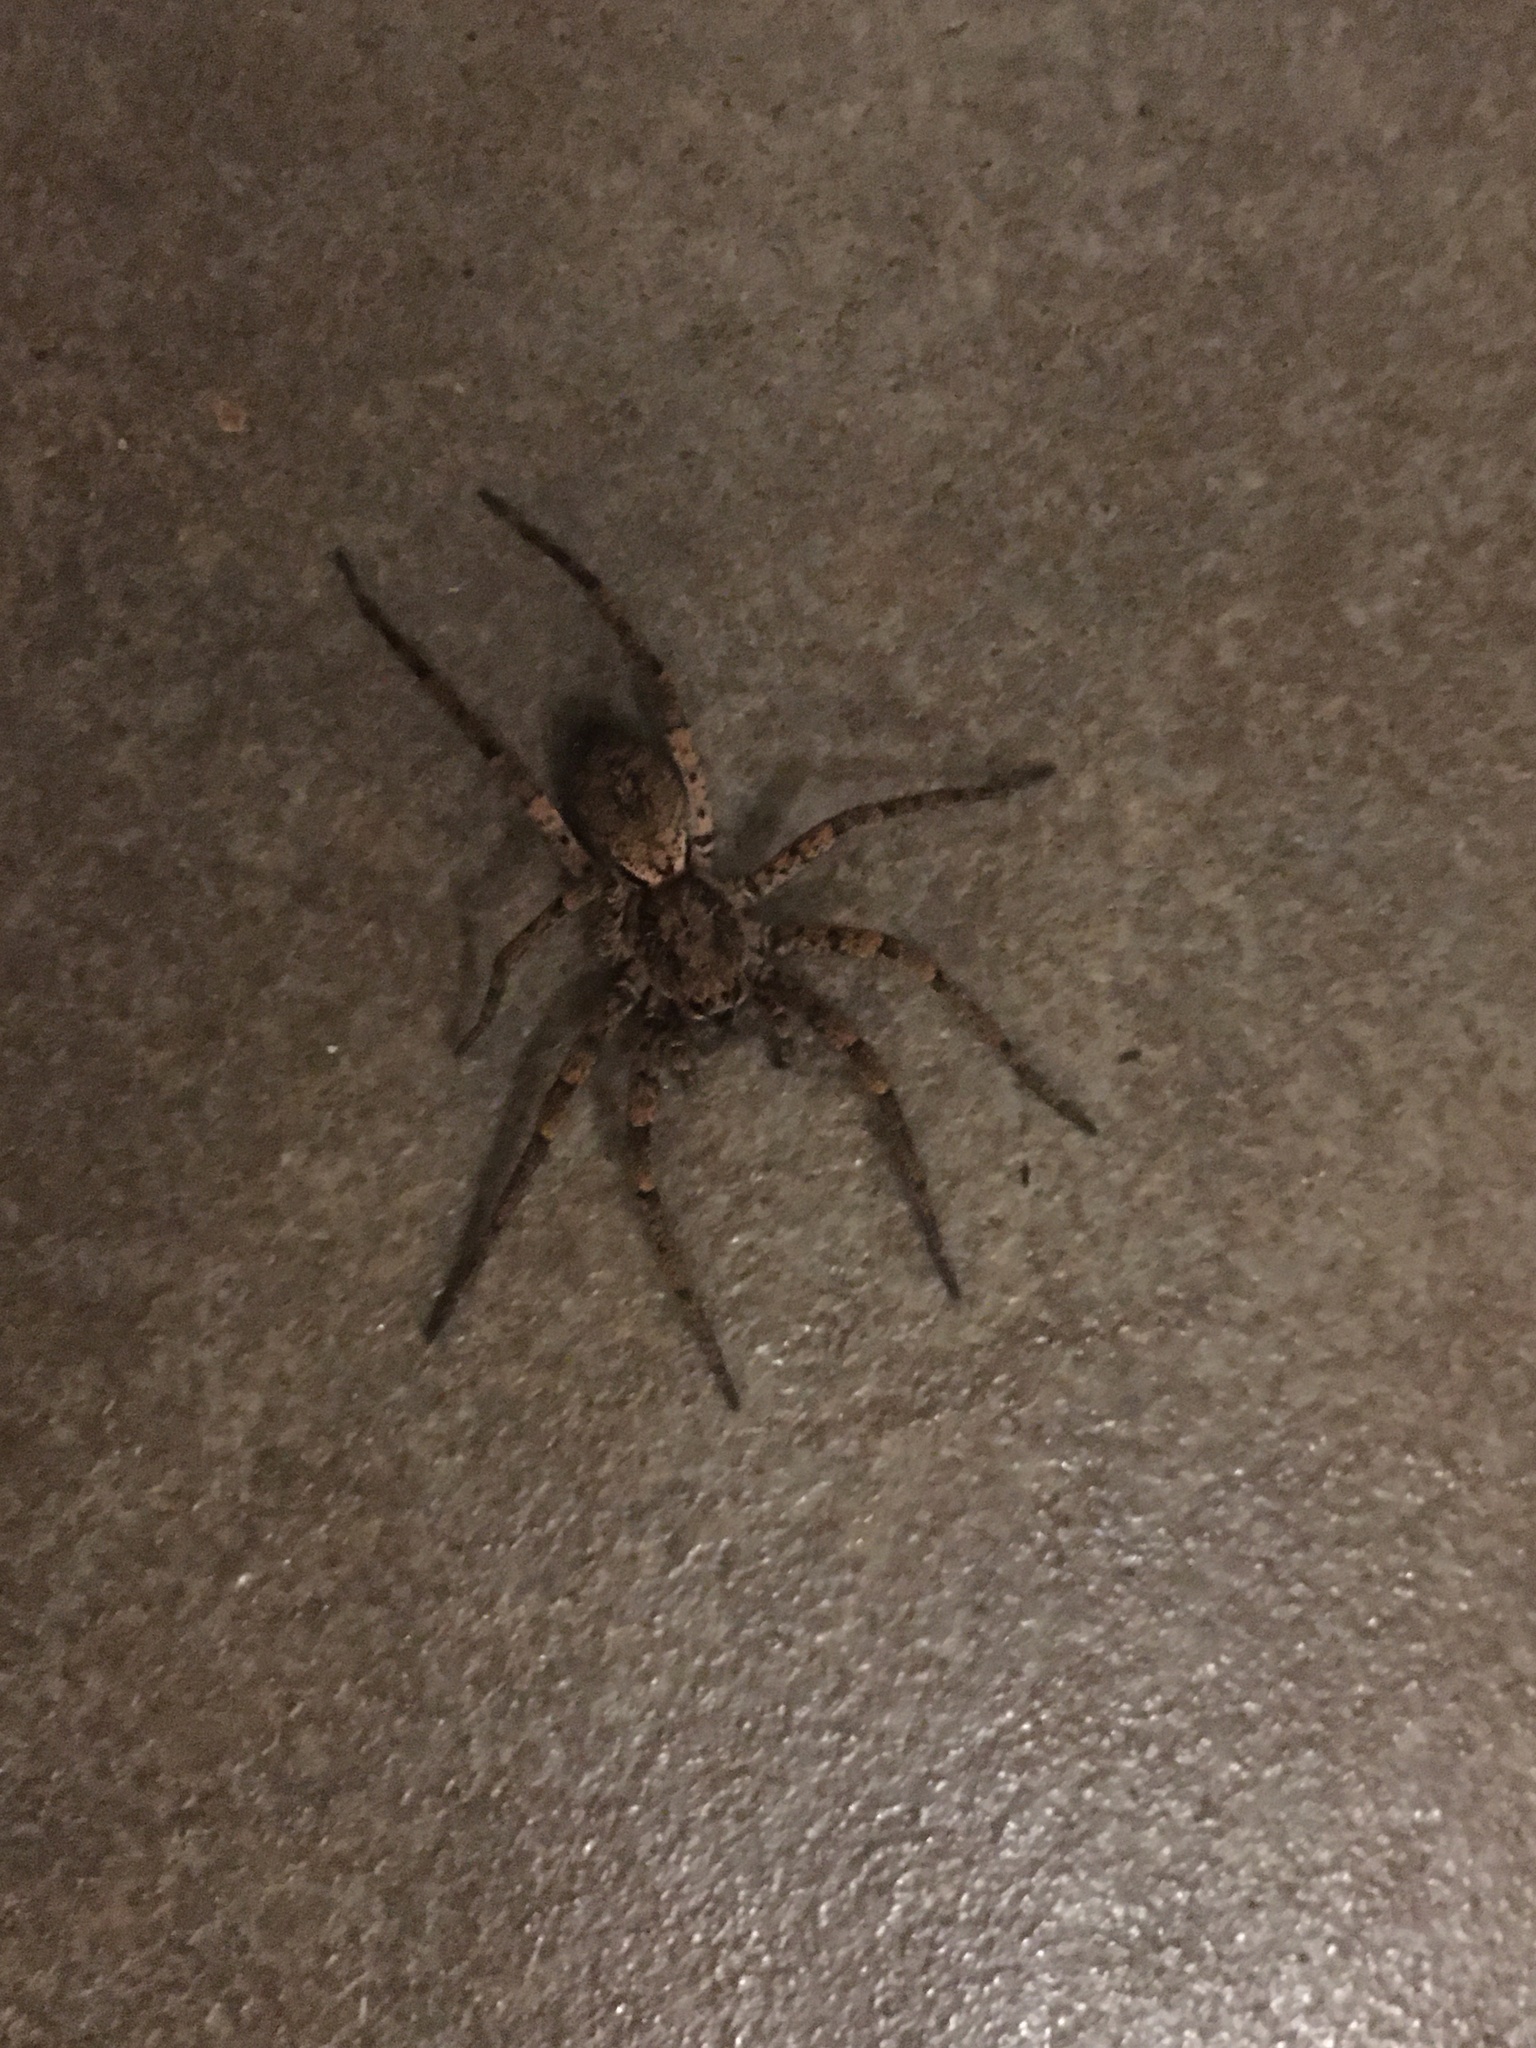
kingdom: Animalia
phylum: Arthropoda
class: Arachnida
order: Araneae
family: Anyphaenidae
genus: Tomopisthes
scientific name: Tomopisthes horrendus
